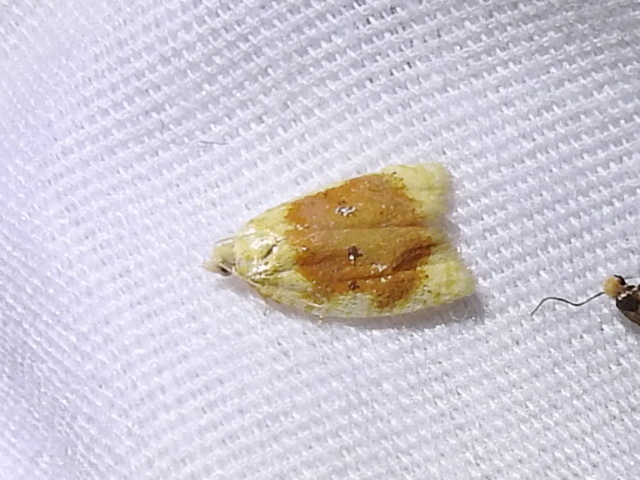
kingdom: Animalia
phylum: Arthropoda
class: Insecta
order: Lepidoptera
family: Tortricidae
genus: Acleris
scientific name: Acleris semipurpurana
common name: Oak leaftier moth
